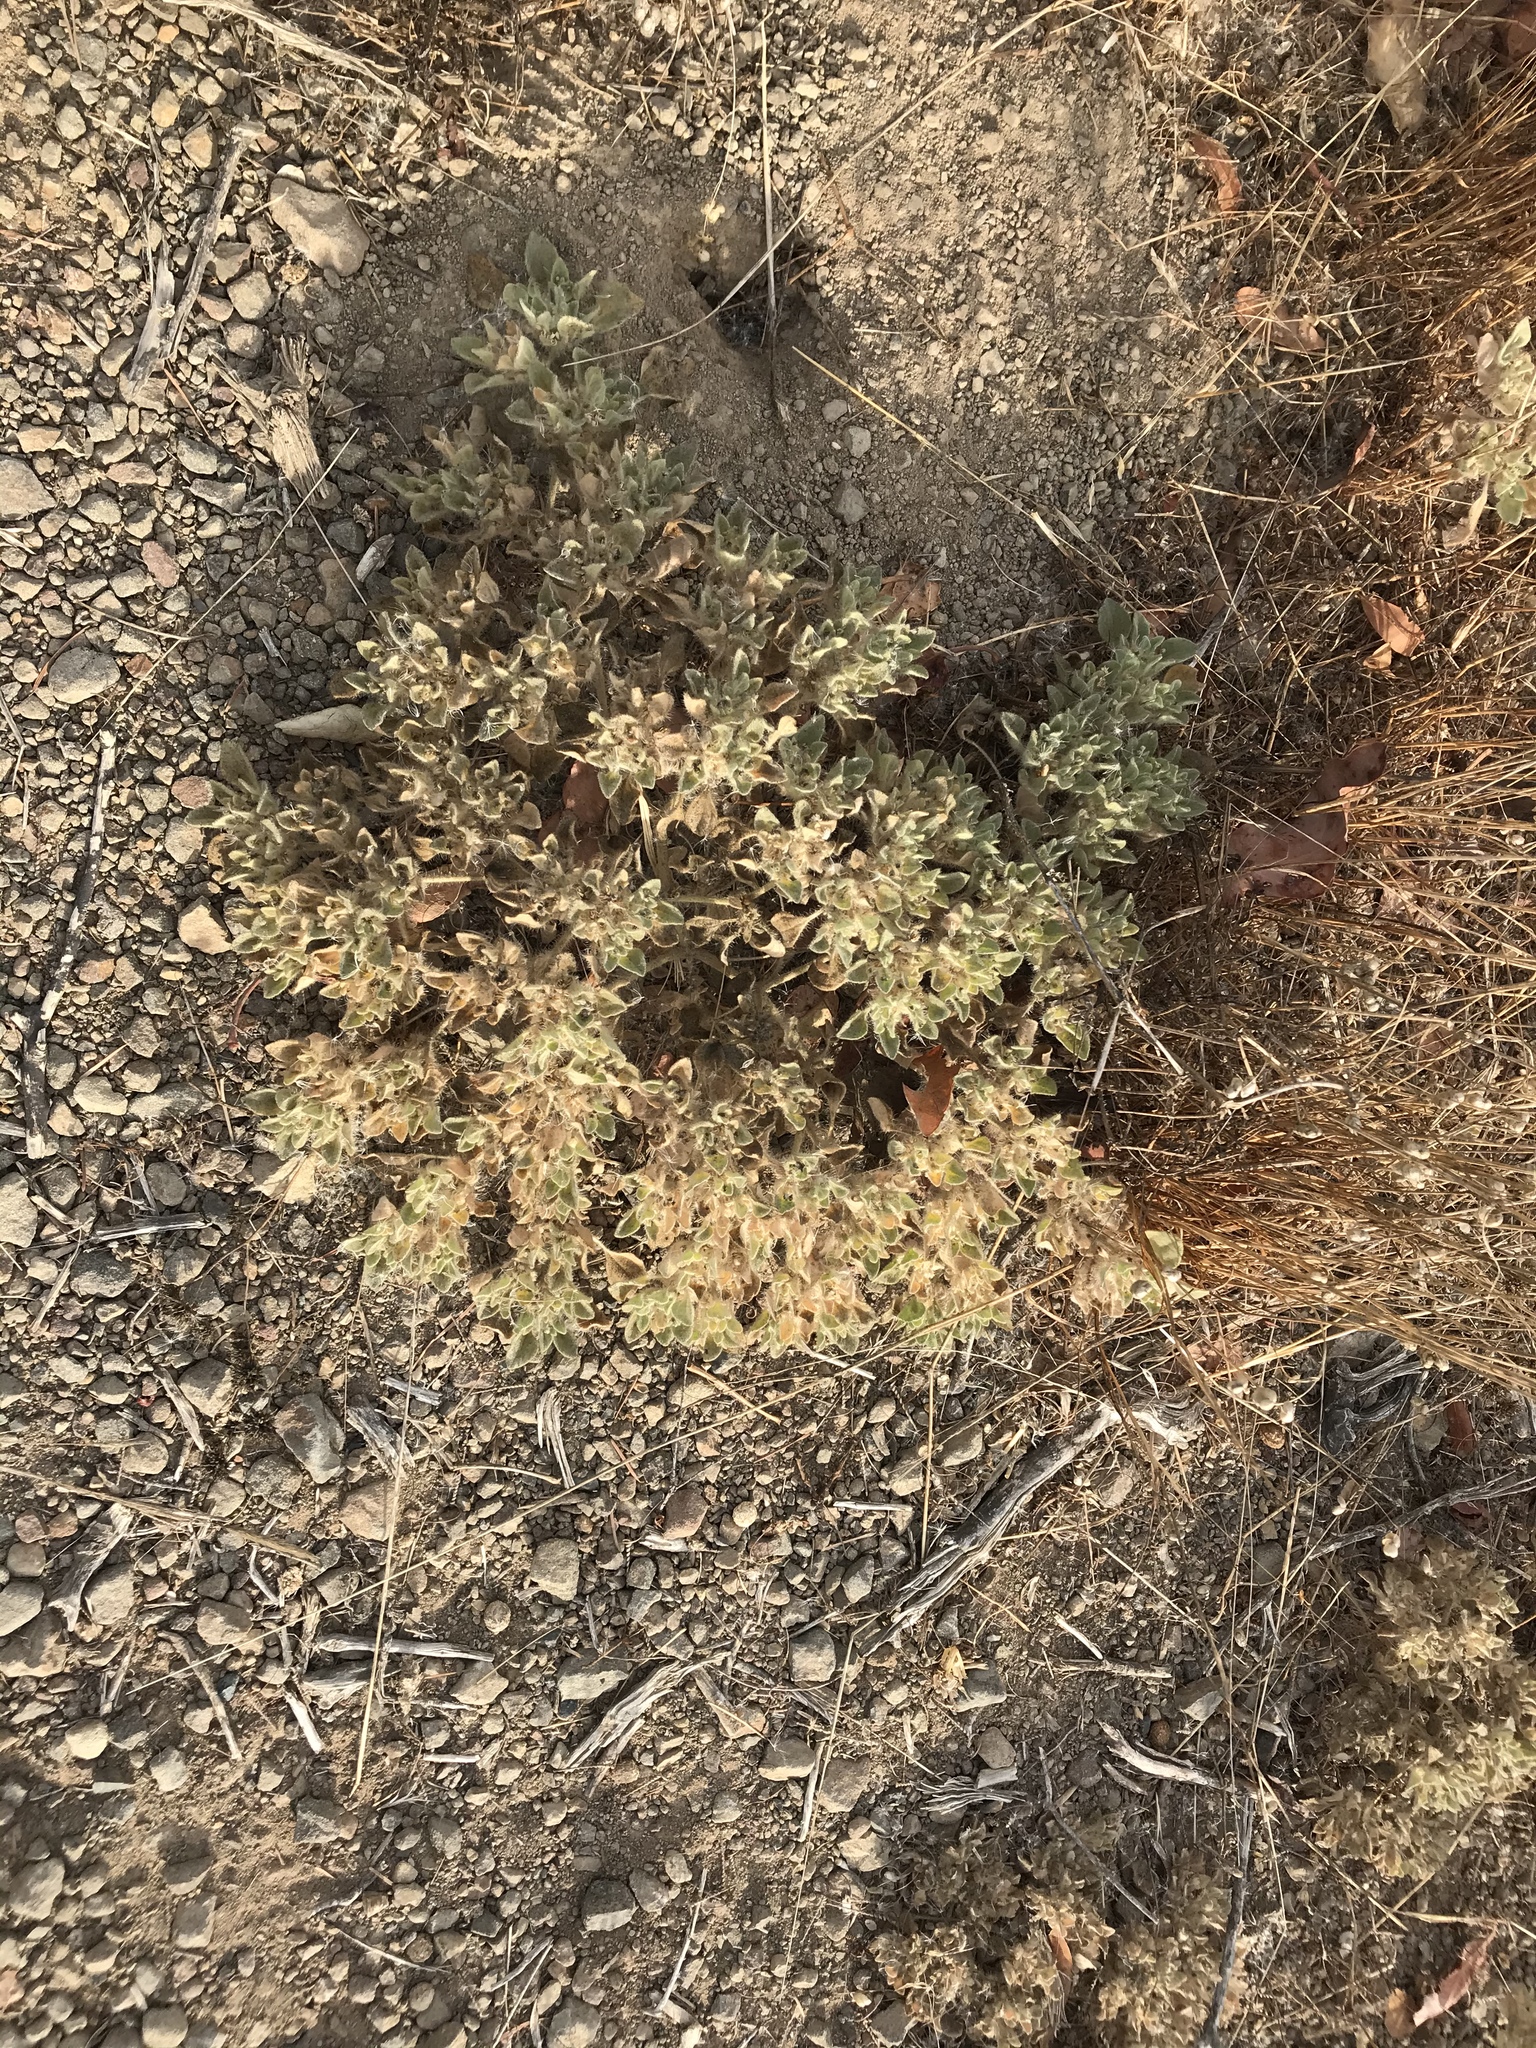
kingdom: Plantae
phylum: Tracheophyta
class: Magnoliopsida
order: Malpighiales
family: Euphorbiaceae
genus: Croton
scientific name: Croton setiger
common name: Dove weed
